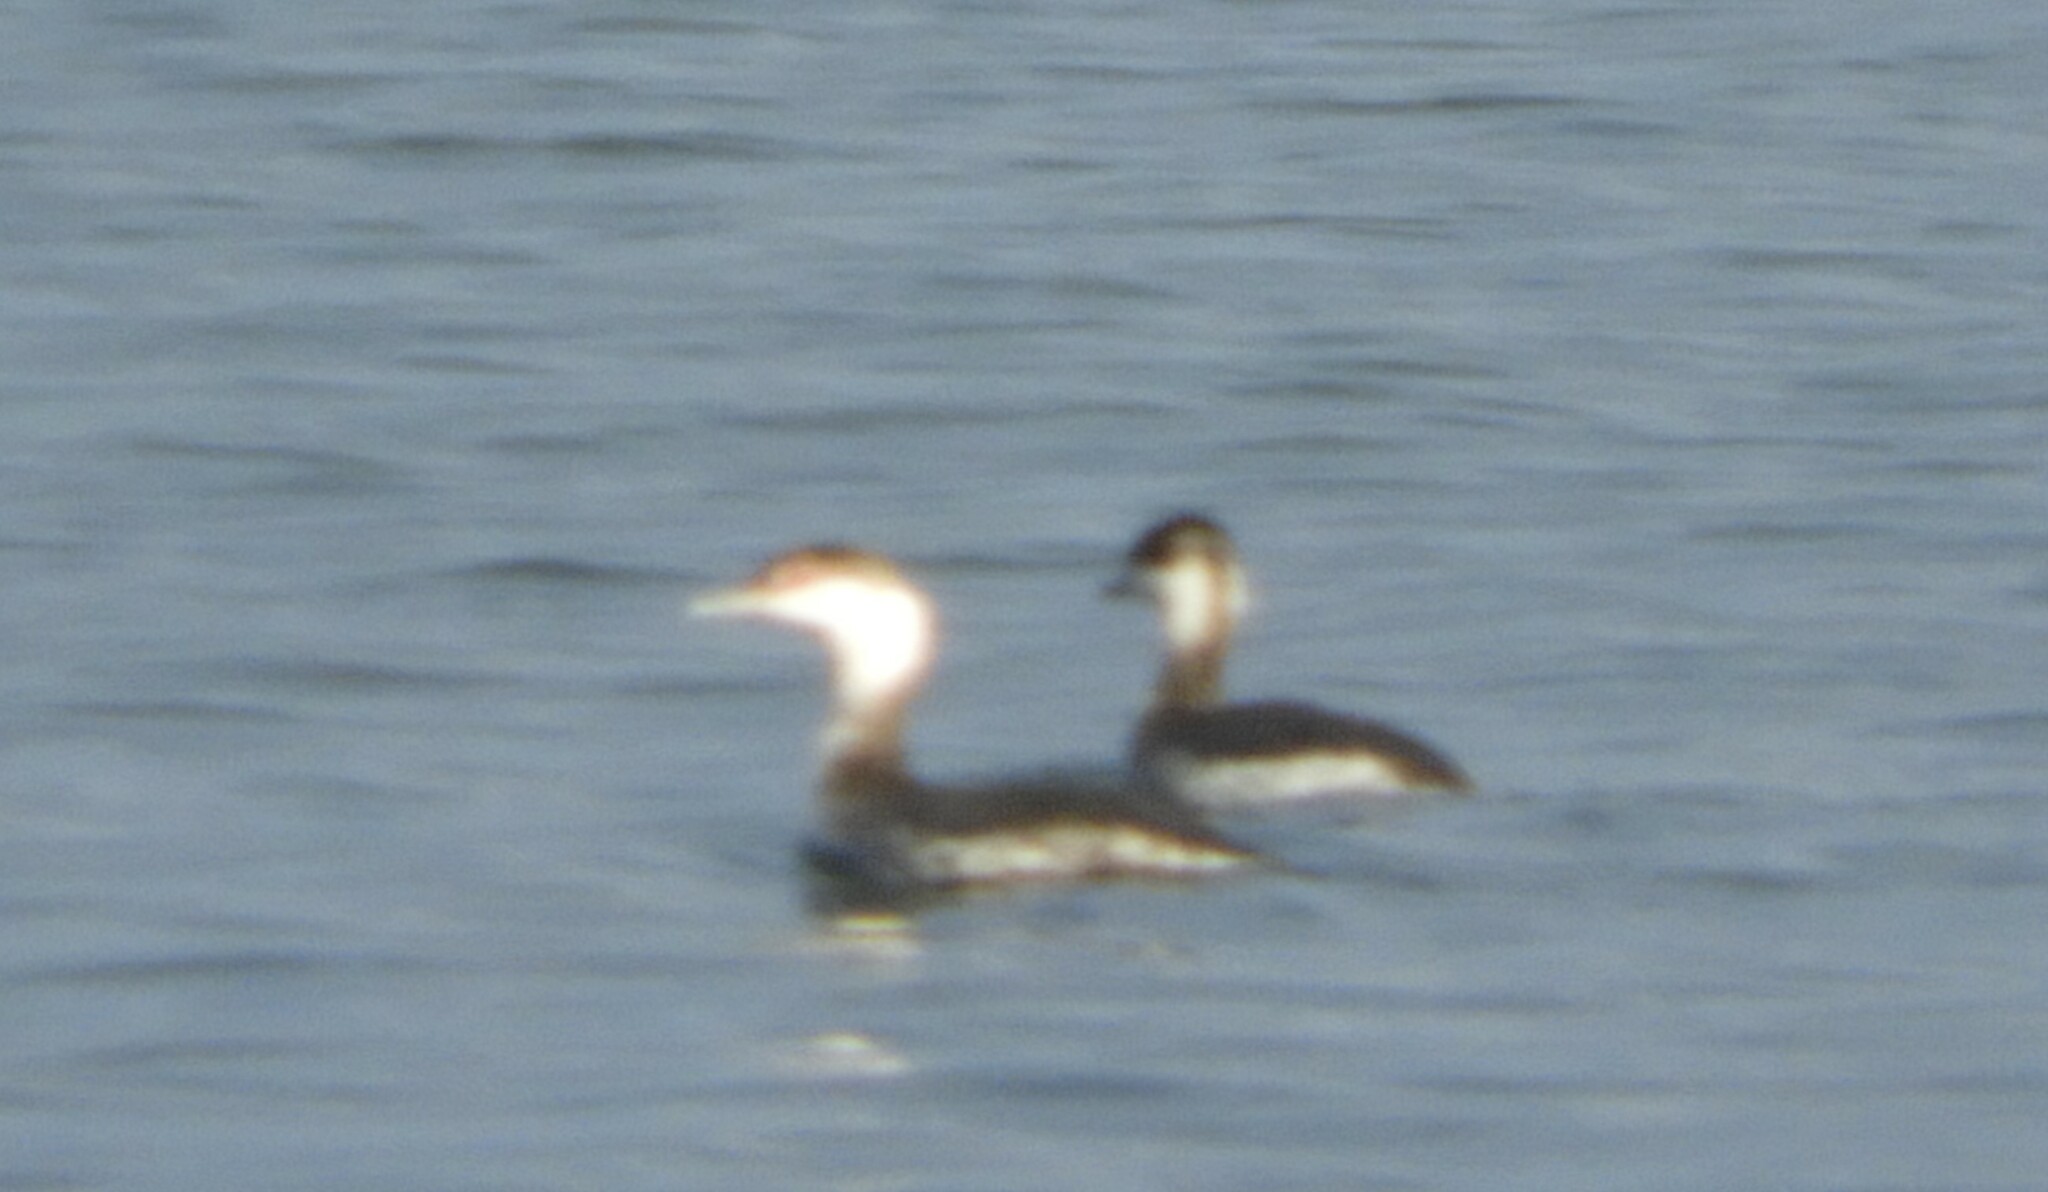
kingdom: Animalia
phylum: Chordata
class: Aves
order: Podicipediformes
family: Podicipedidae
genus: Podiceps
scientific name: Podiceps auritus
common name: Horned grebe
